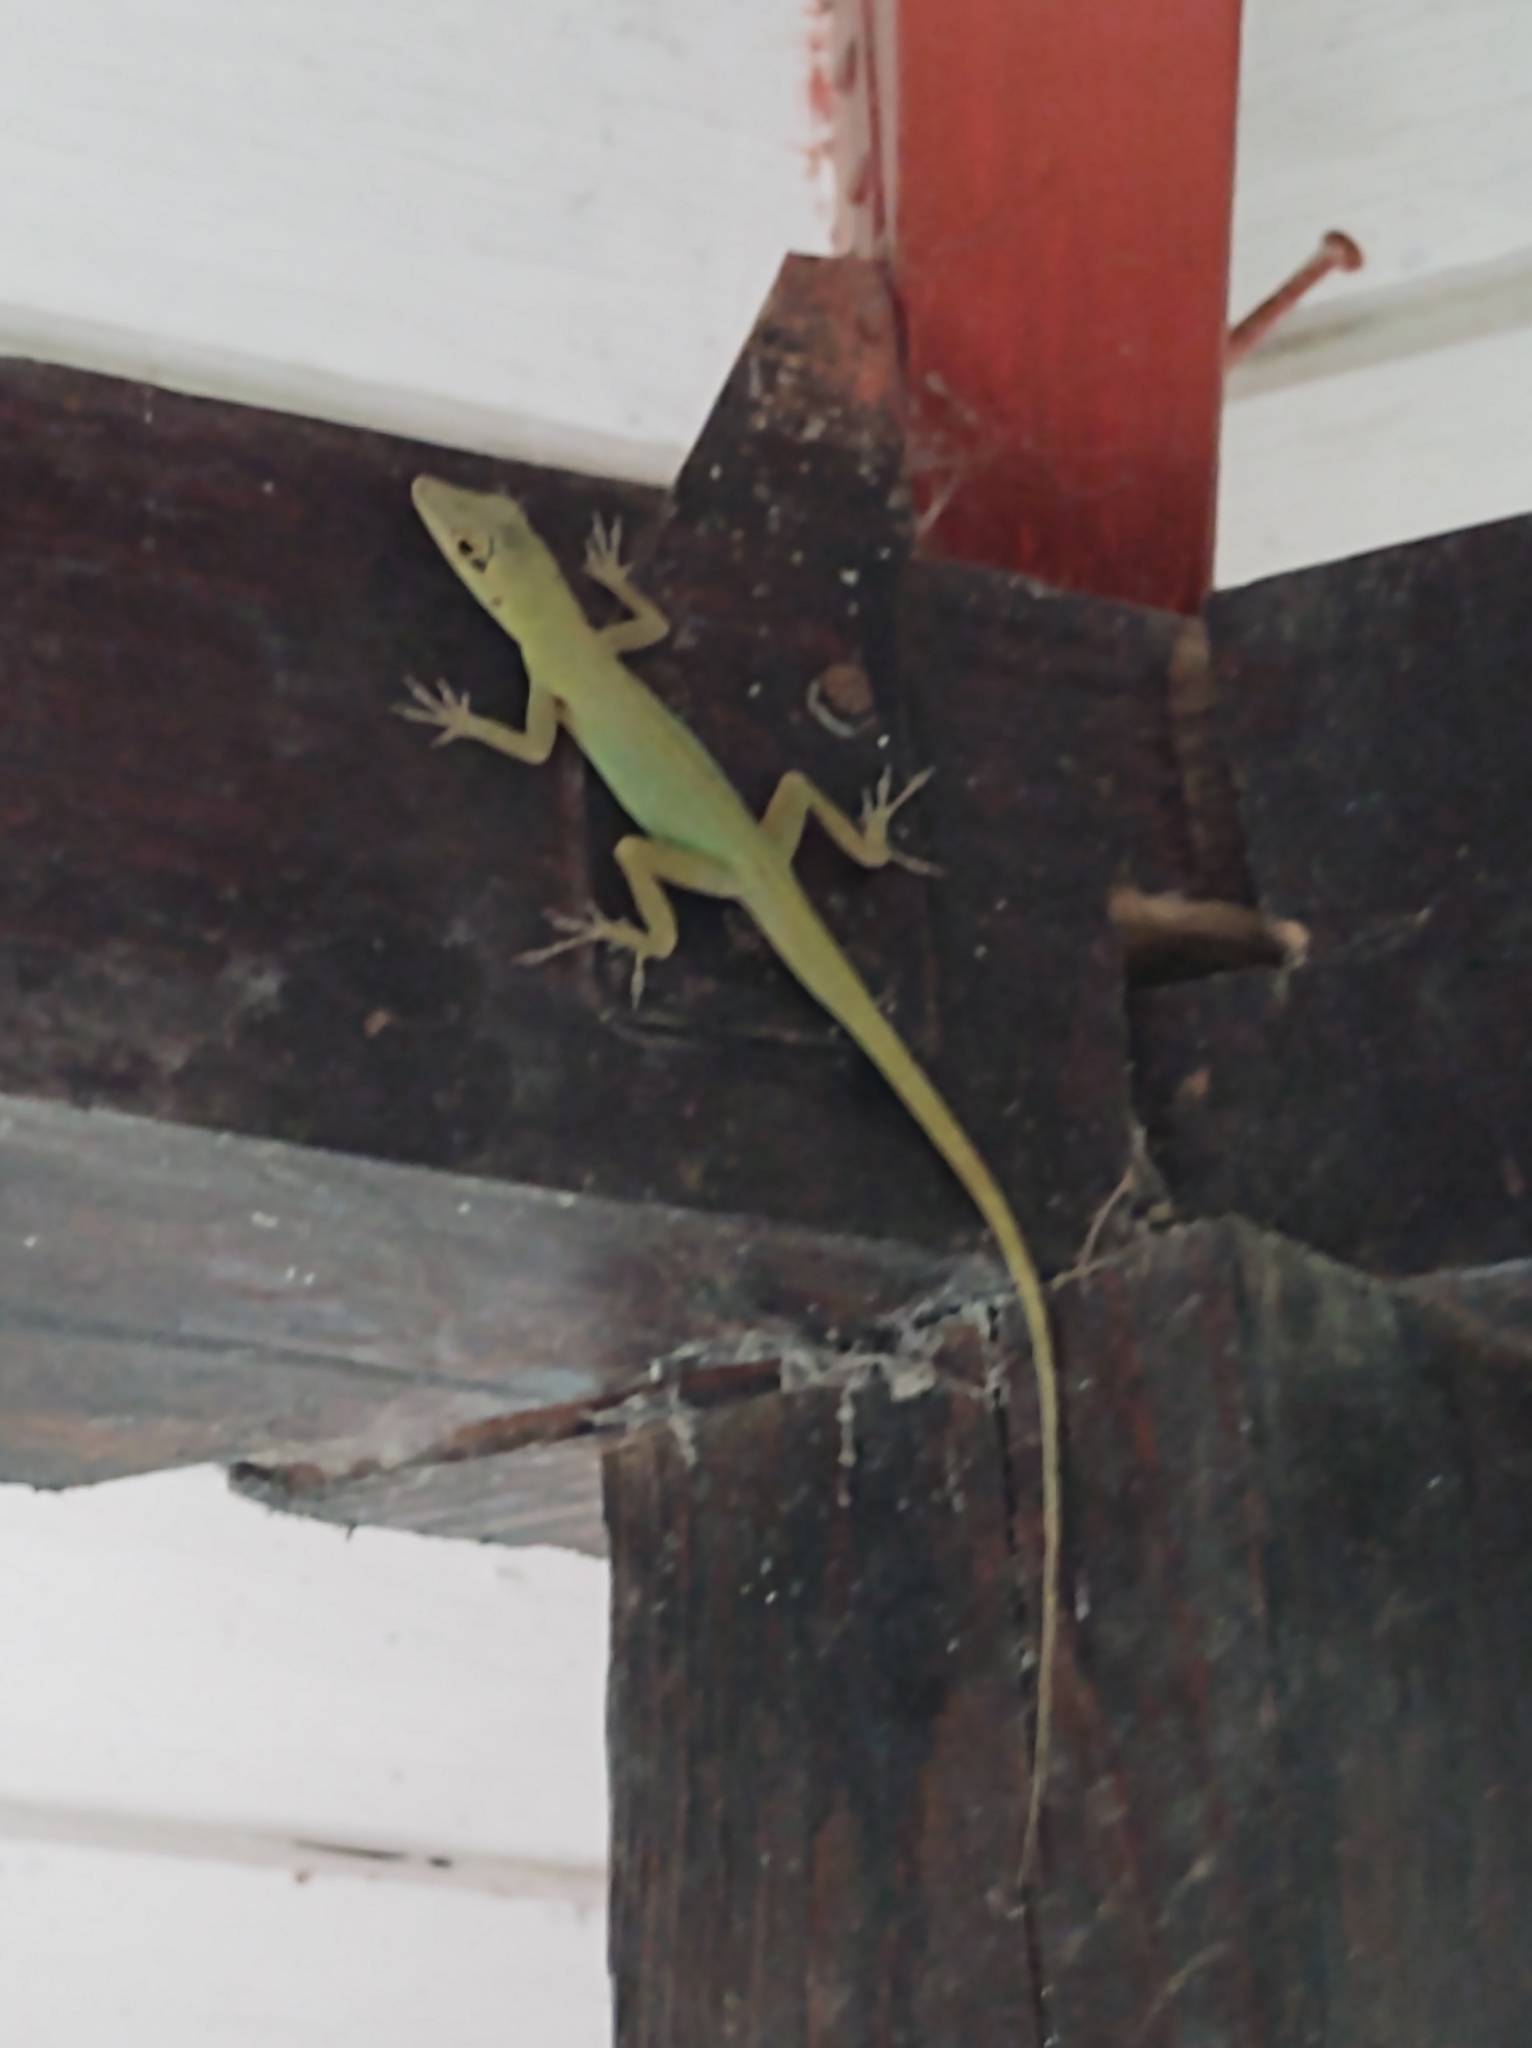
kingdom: Animalia
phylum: Chordata
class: Squamata
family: Dactyloidae
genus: Anolis
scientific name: Anolis trinitatis
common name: Saint vincent's bush anole
